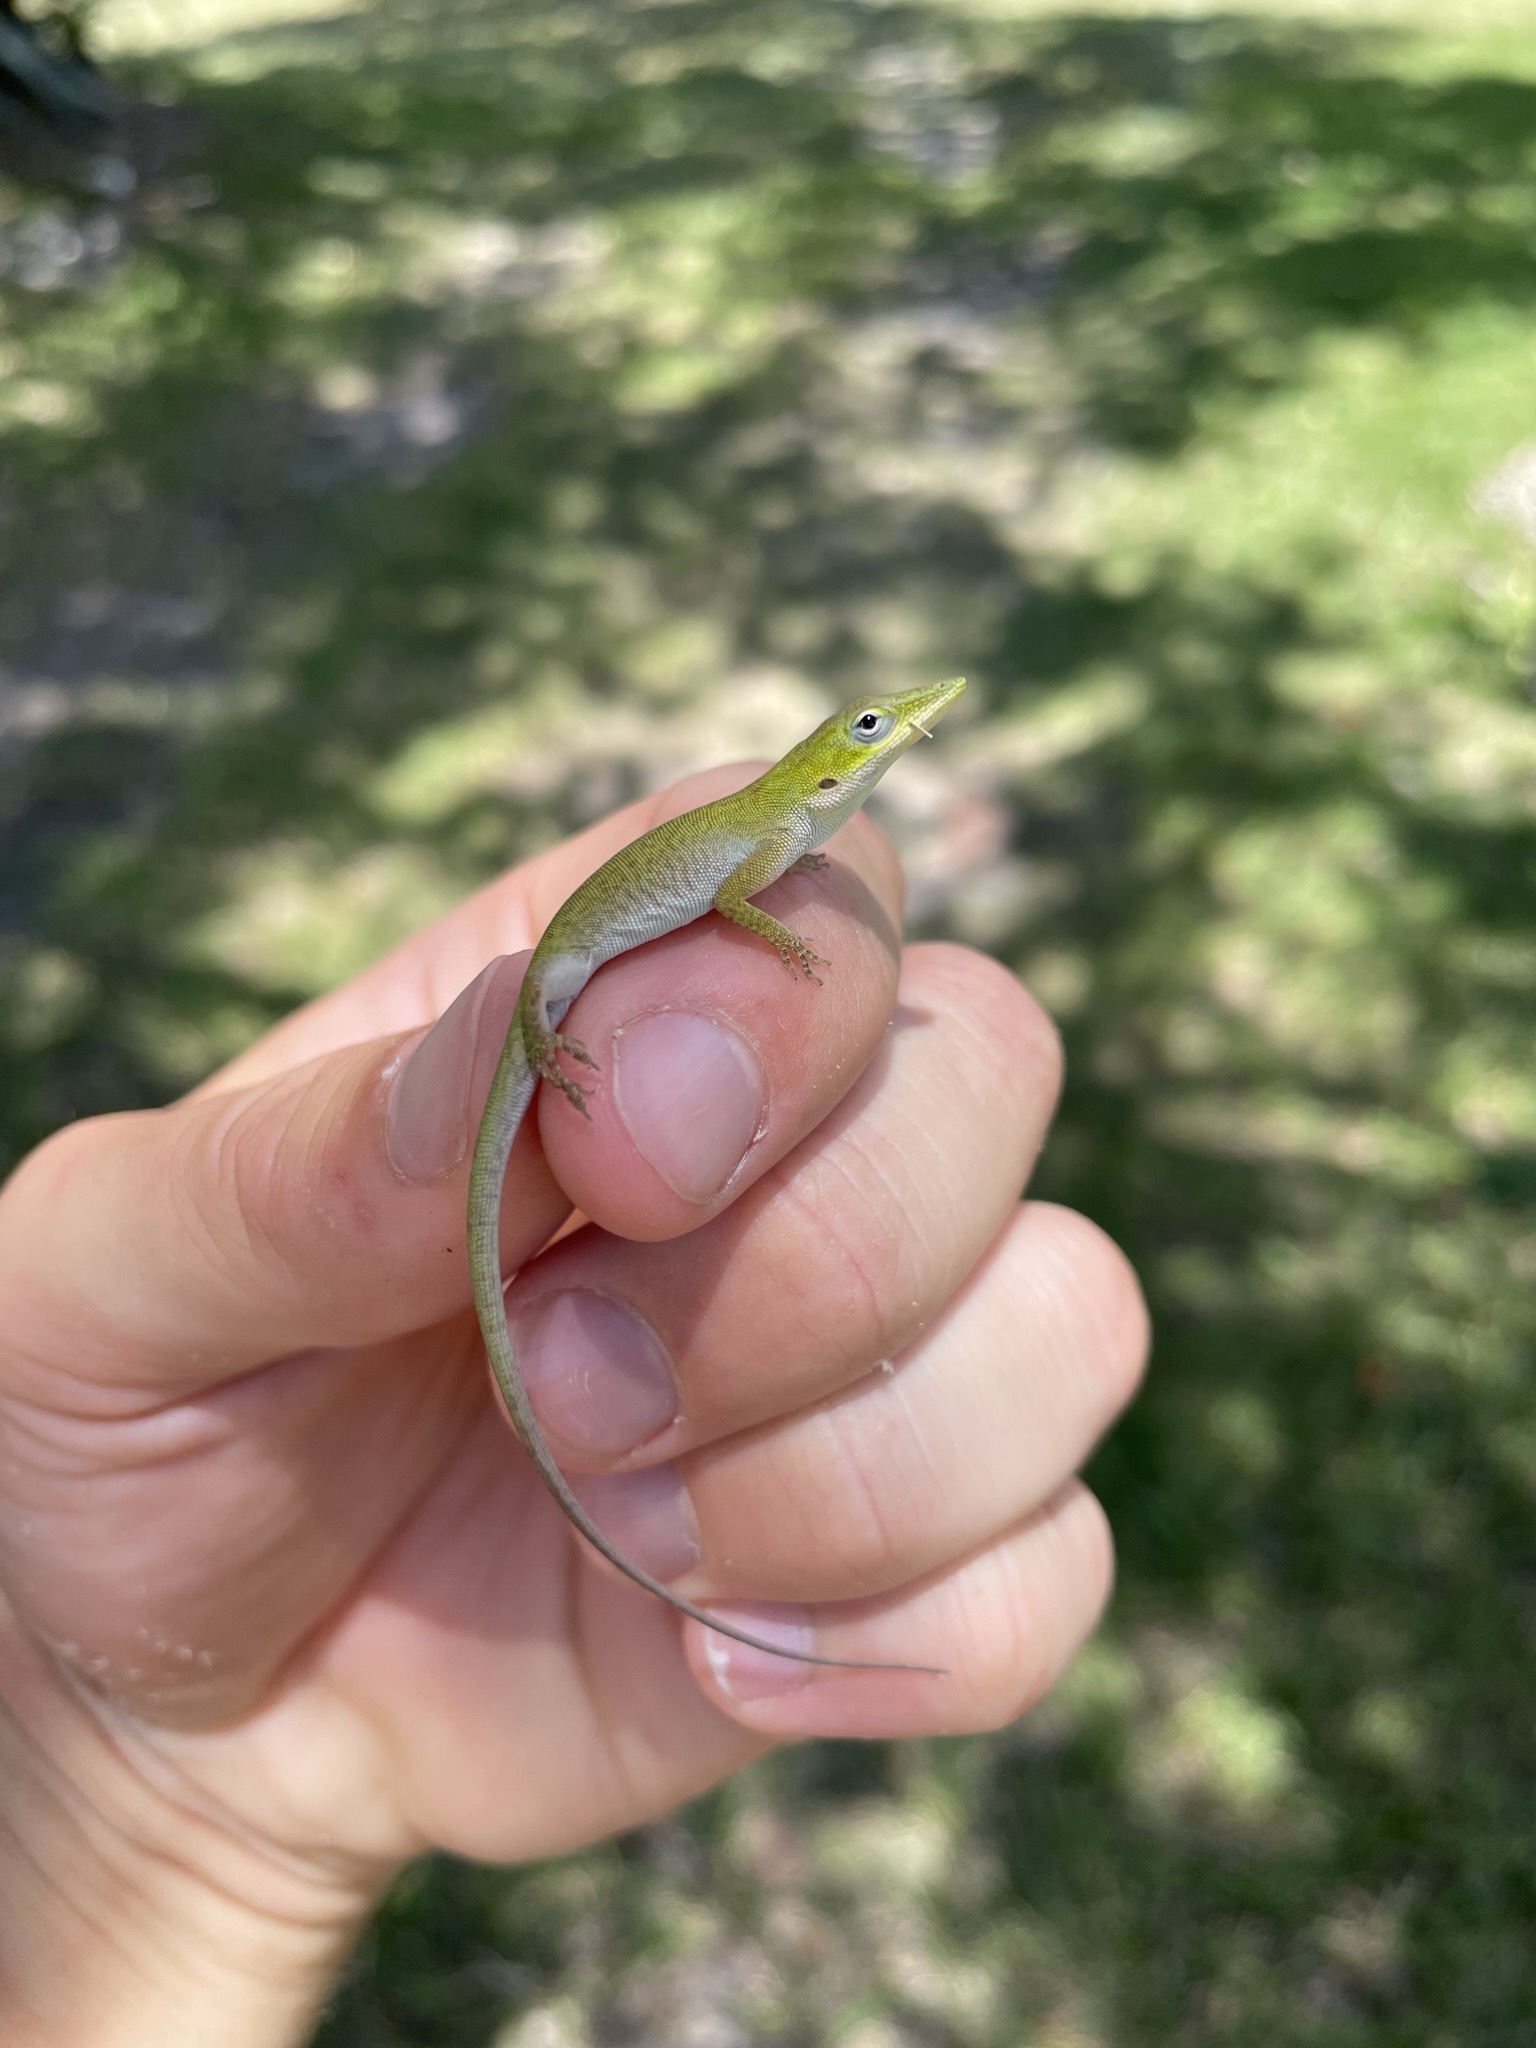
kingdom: Animalia
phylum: Chordata
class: Squamata
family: Dactyloidae
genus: Anolis
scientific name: Anolis carolinensis
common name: Green anole
